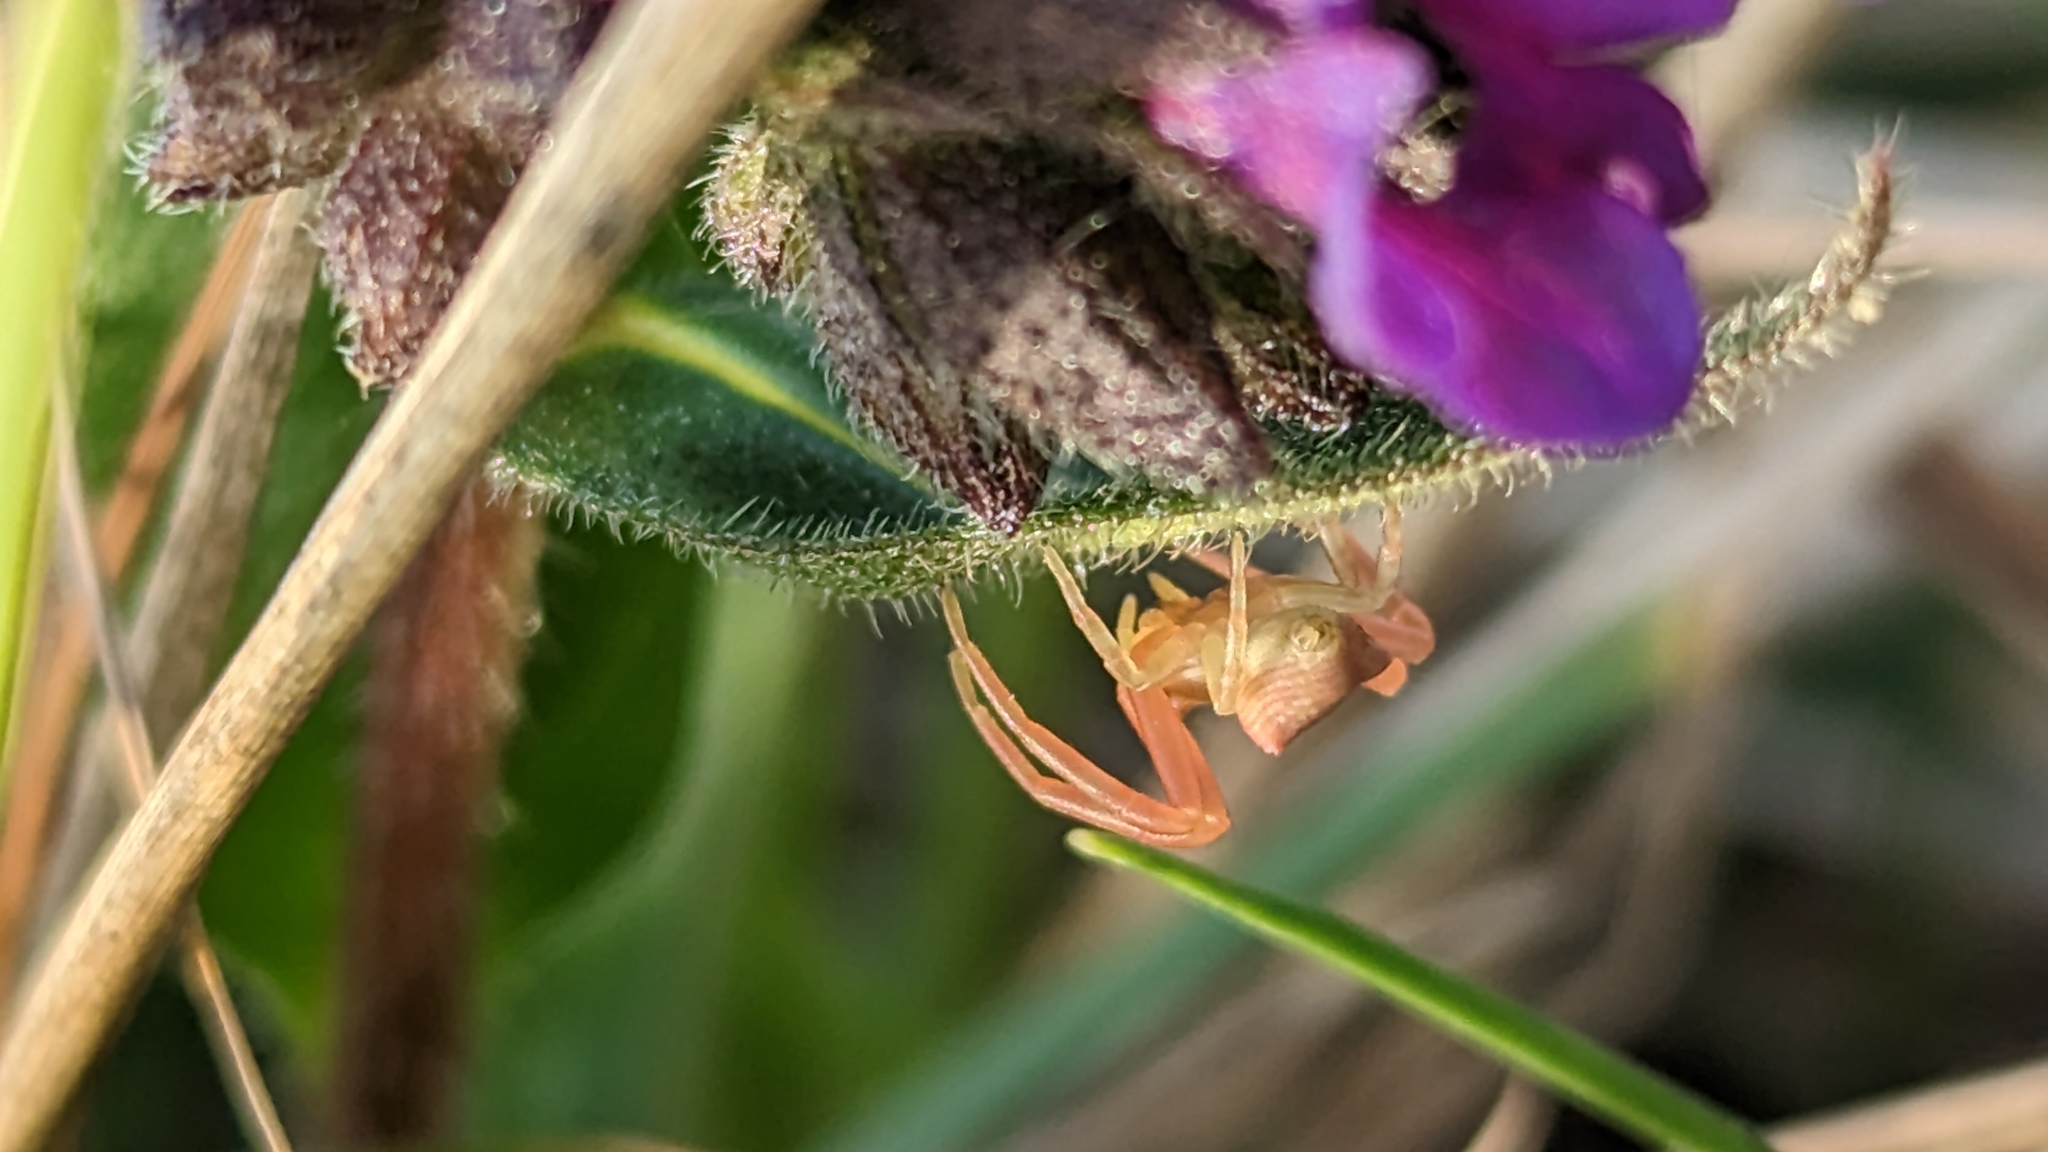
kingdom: Animalia
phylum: Arthropoda
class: Arachnida
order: Araneae
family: Thomisidae
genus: Thomisus
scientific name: Thomisus onustus
